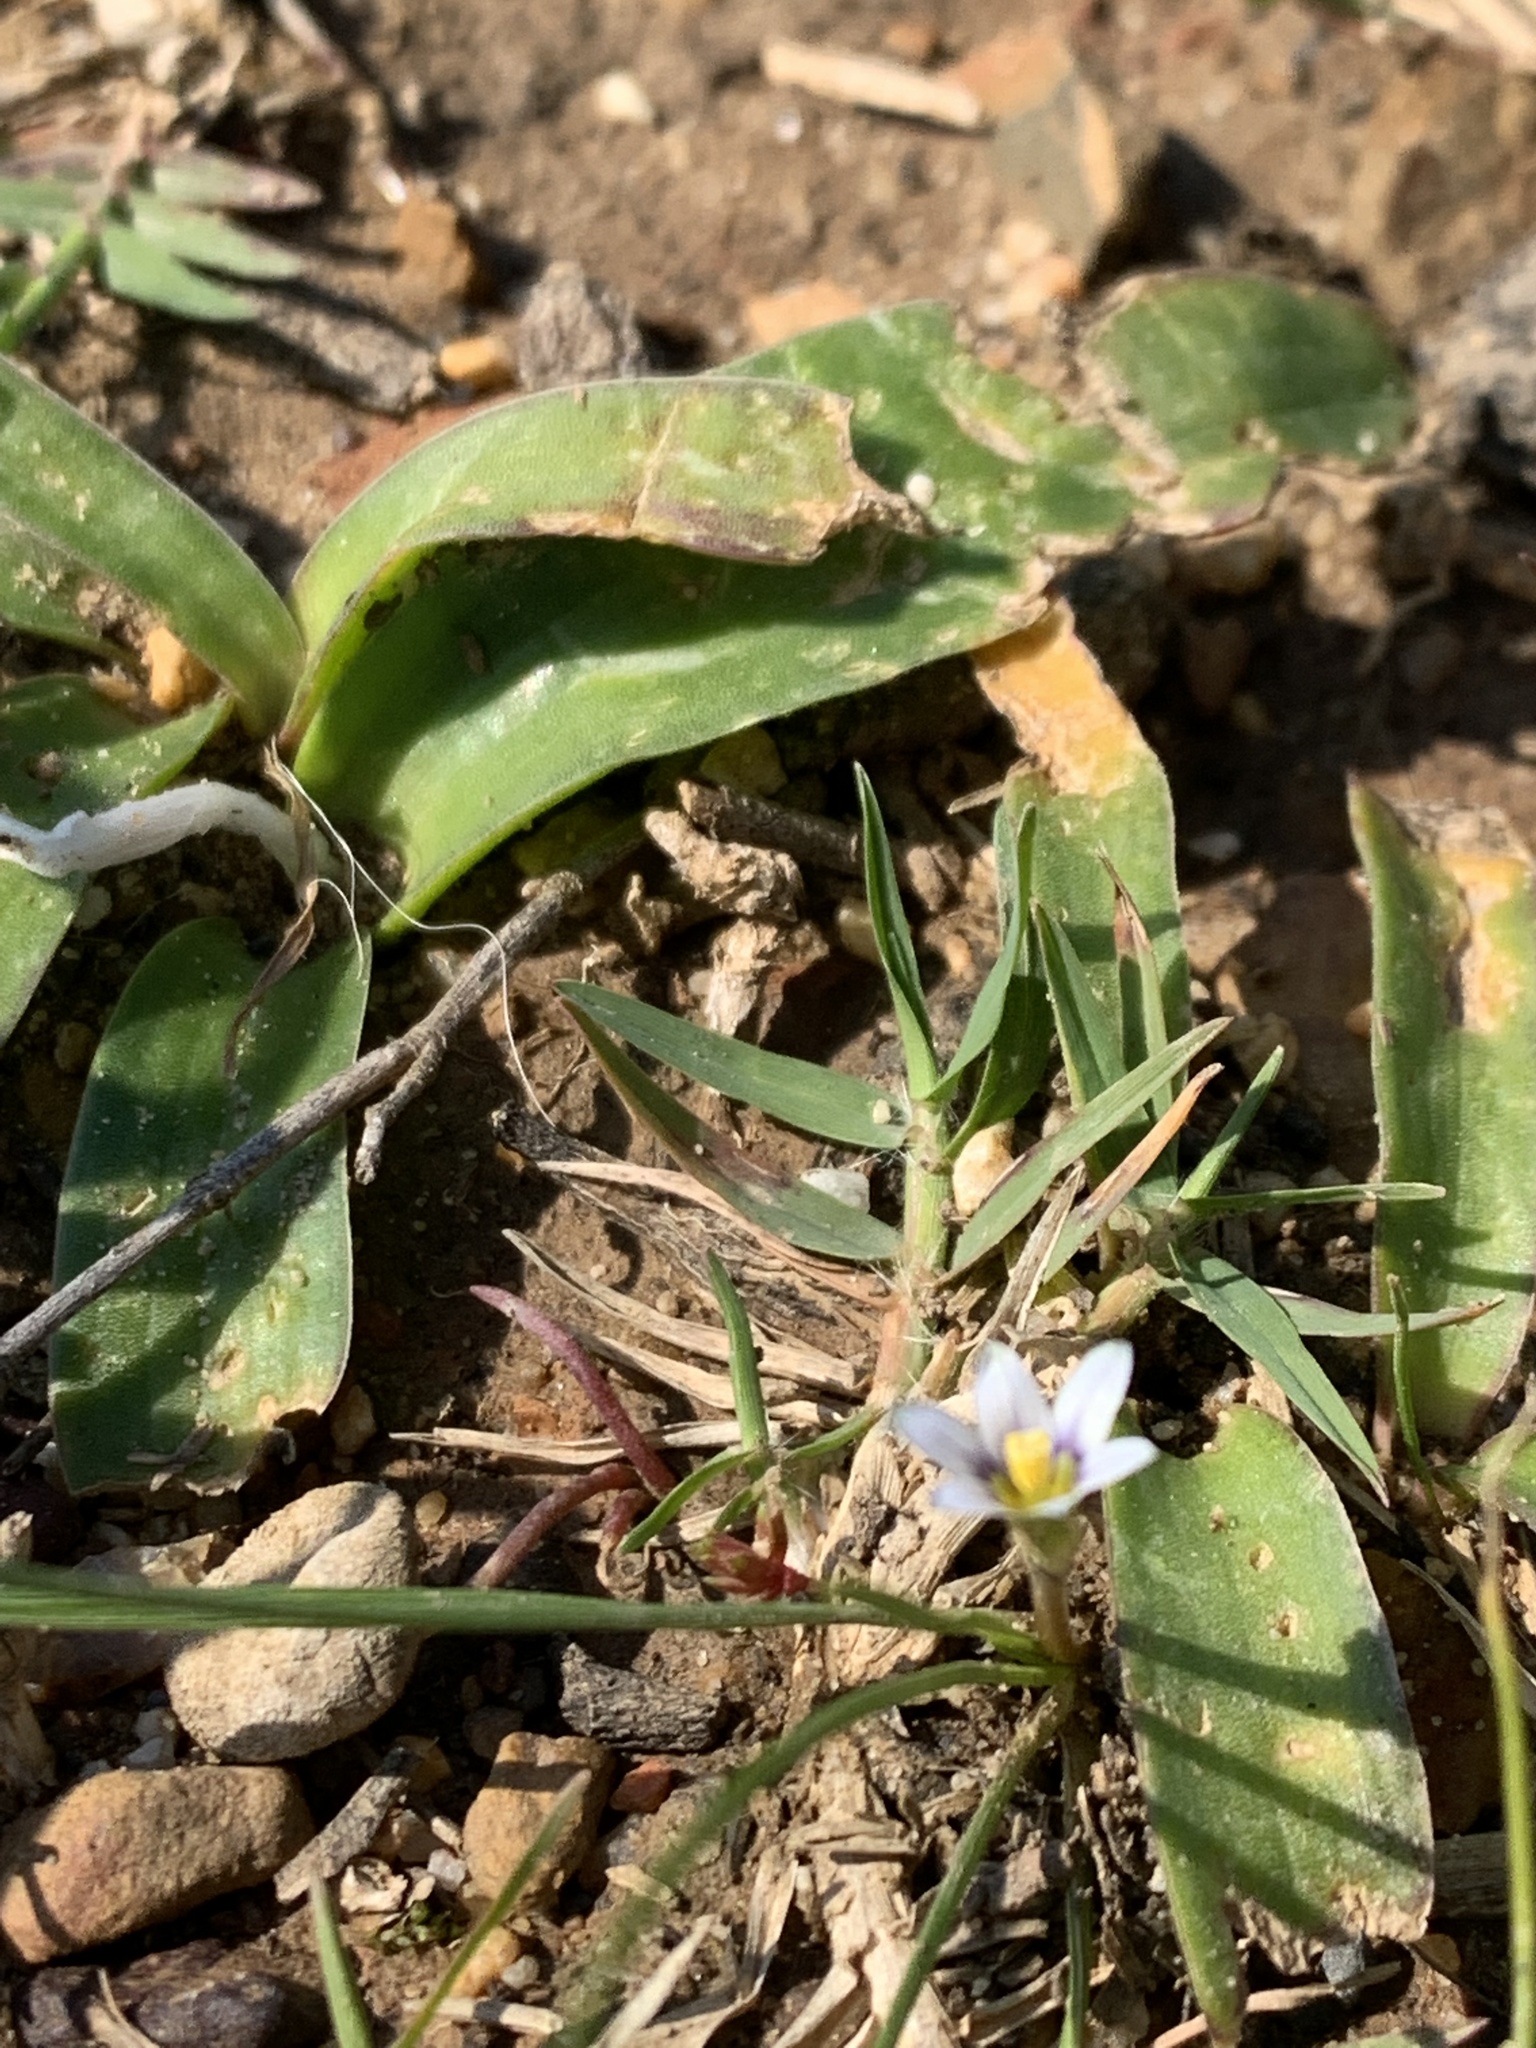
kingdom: Plantae
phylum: Tracheophyta
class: Liliopsida
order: Asparagales
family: Iridaceae
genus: Romulea
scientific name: Romulea minutiflora
